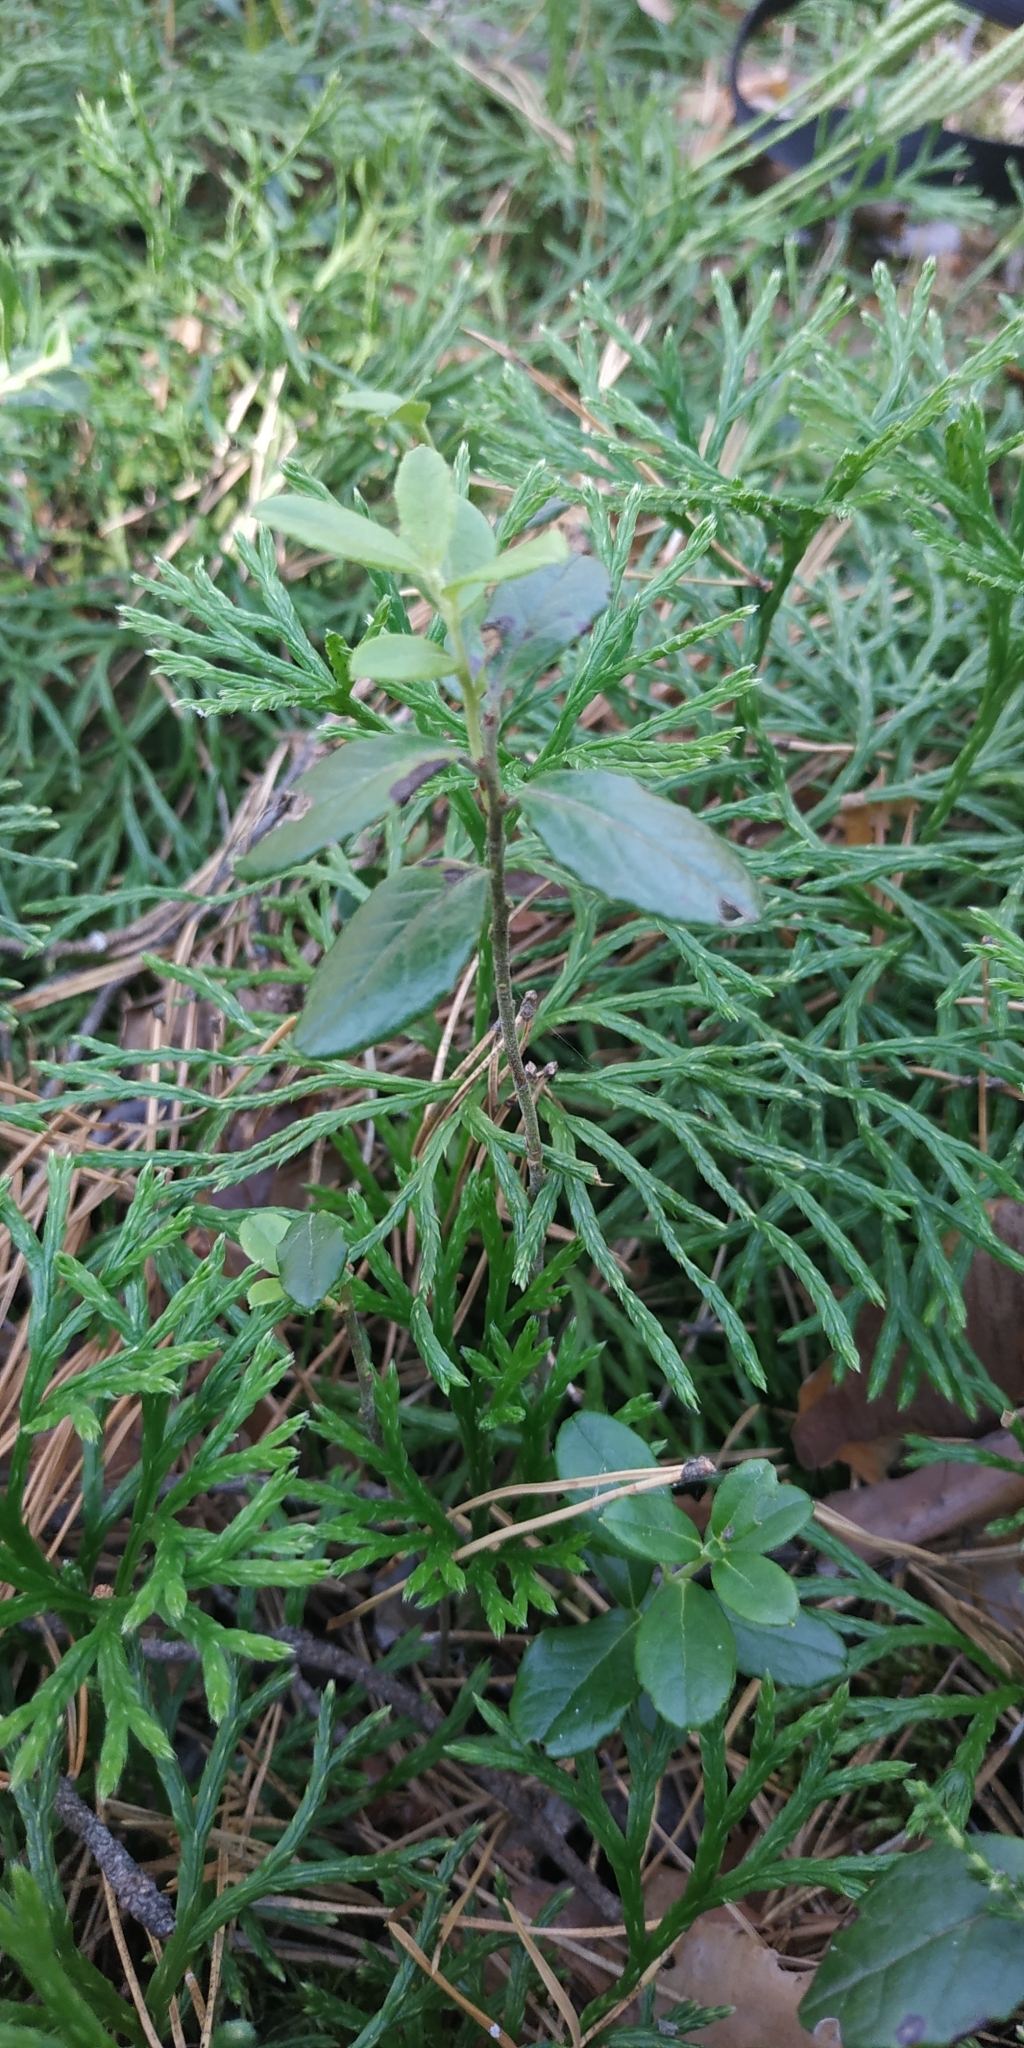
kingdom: Plantae
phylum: Tracheophyta
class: Magnoliopsida
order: Ericales
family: Ericaceae
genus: Vaccinium
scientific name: Vaccinium vitis-idaea
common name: Cowberry
